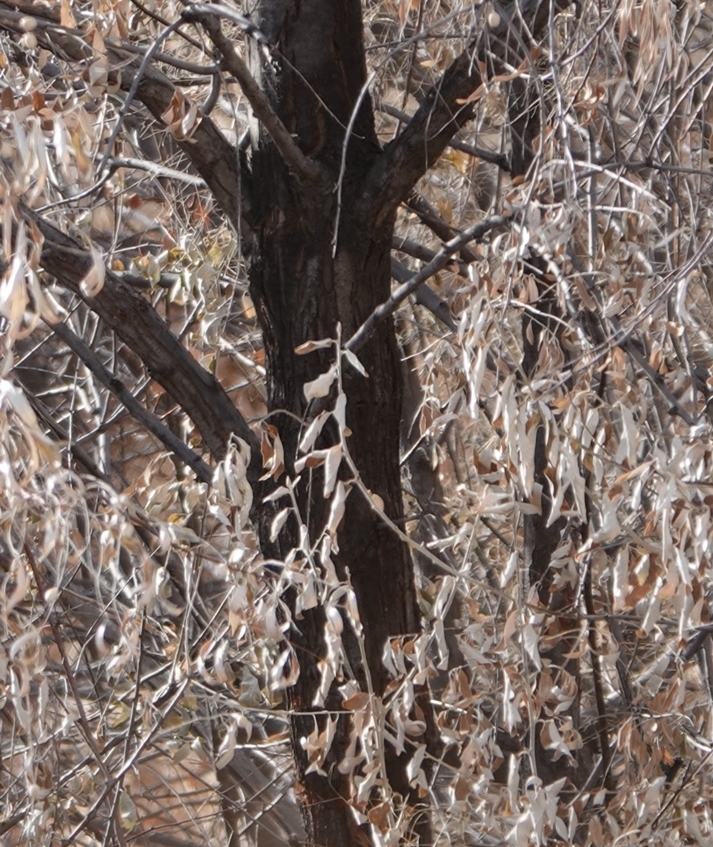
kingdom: Plantae
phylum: Tracheophyta
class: Magnoliopsida
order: Rosales
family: Elaeagnaceae
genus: Elaeagnus
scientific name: Elaeagnus angustifolia
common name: Russian olive
